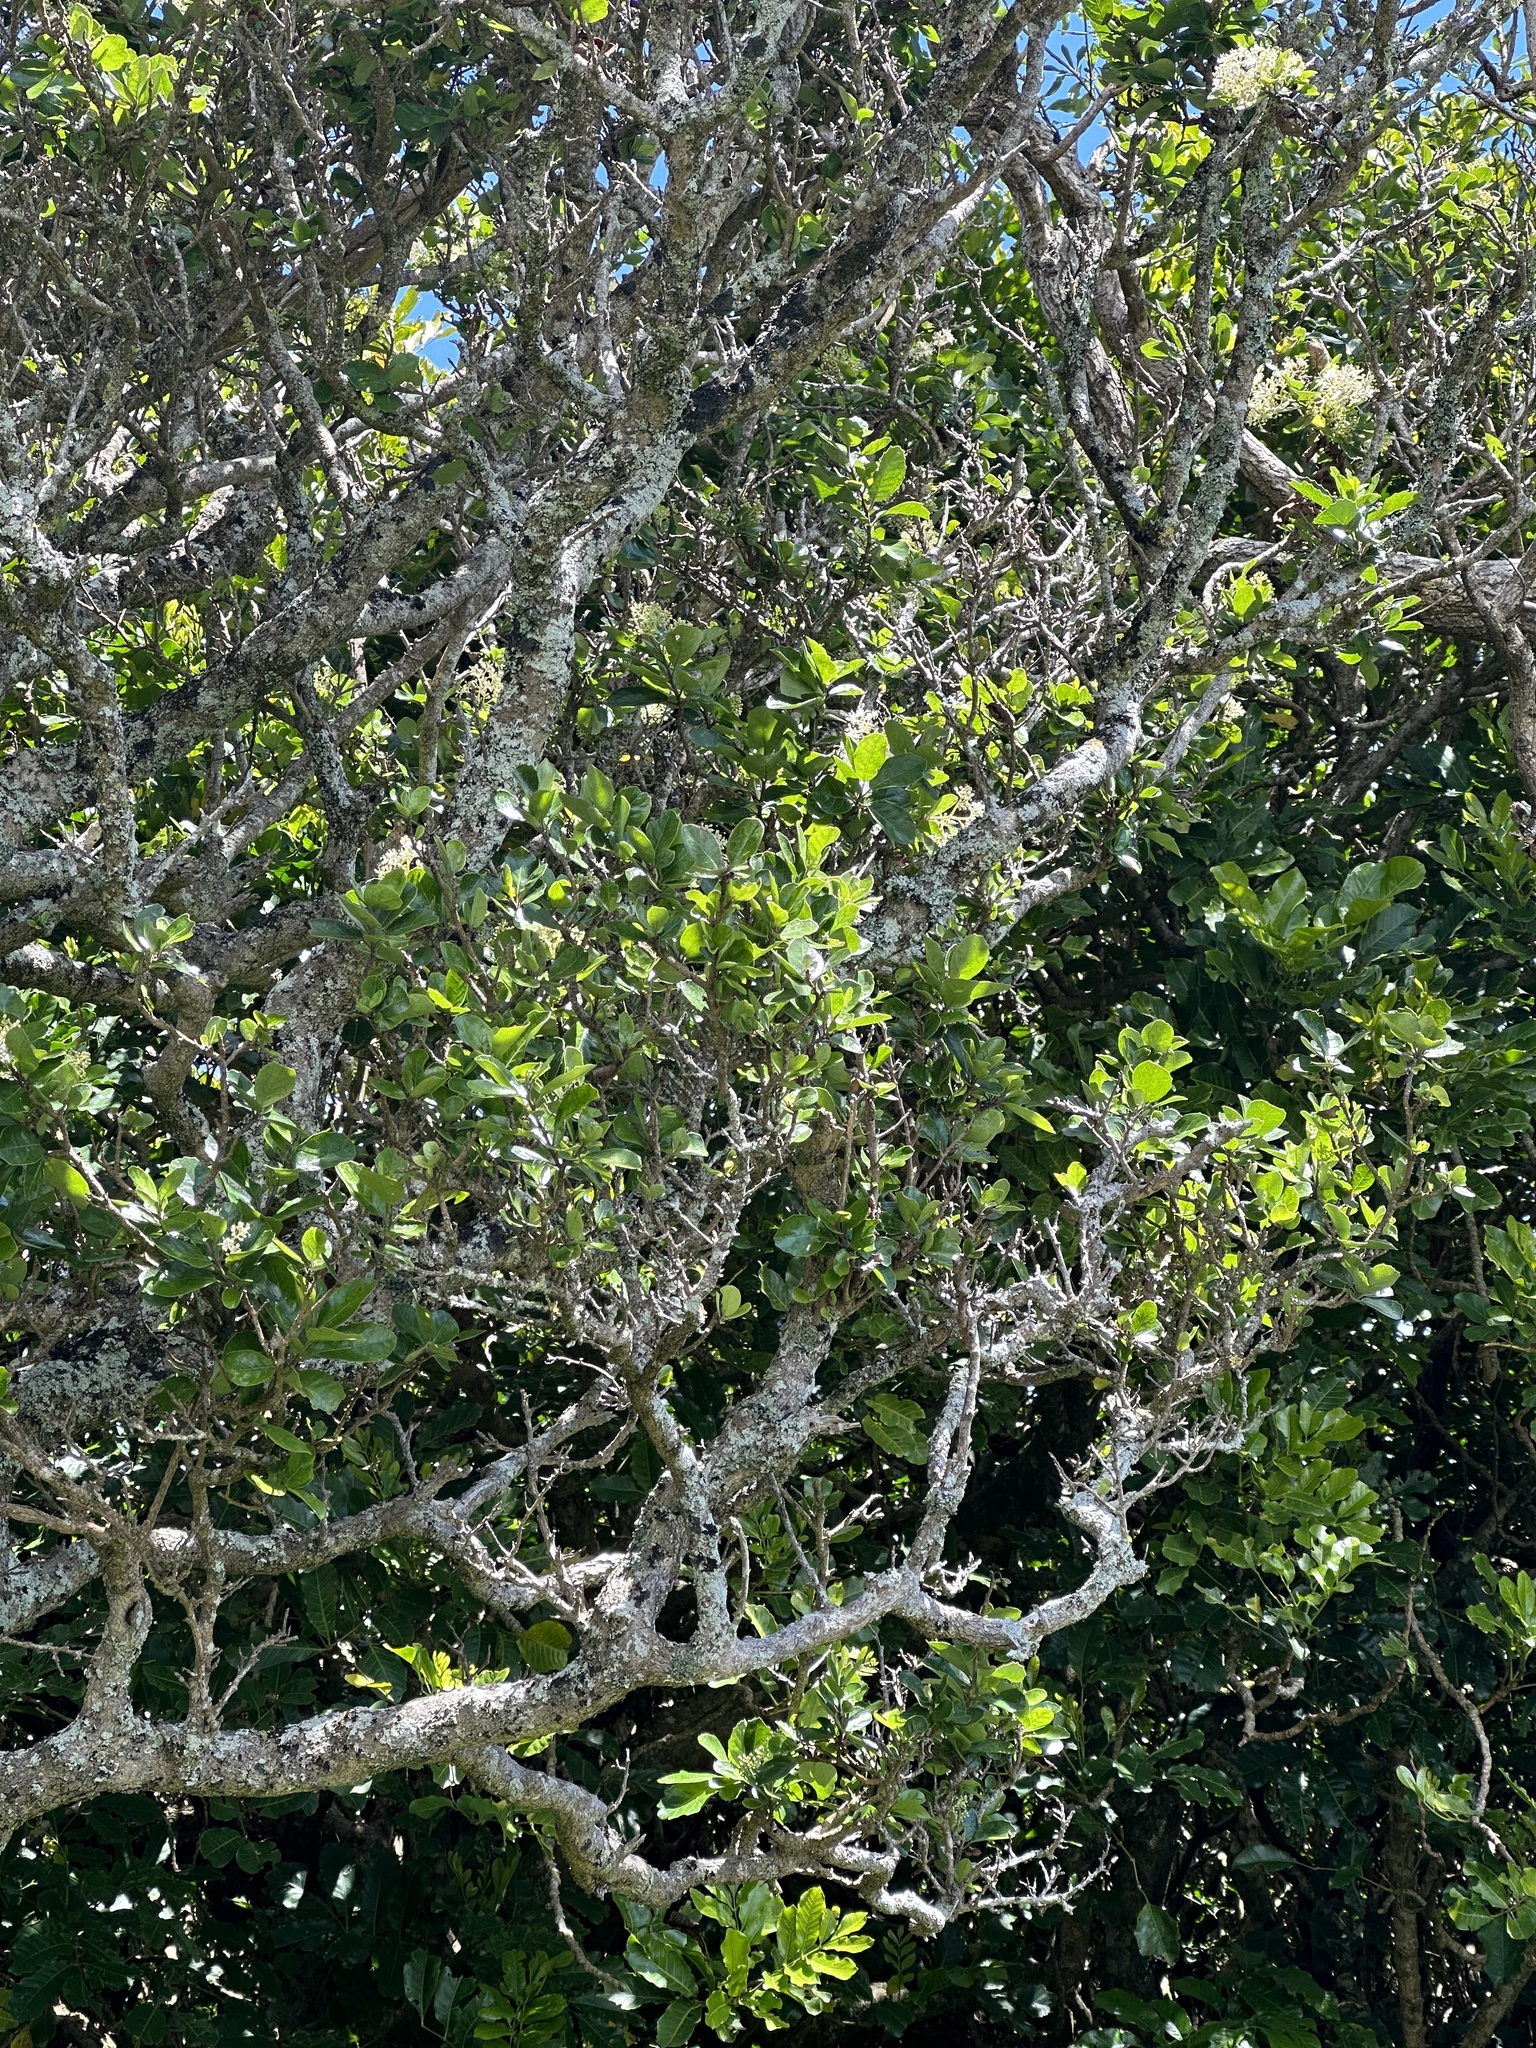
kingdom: Plantae
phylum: Tracheophyta
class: Magnoliopsida
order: Apiales
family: Pennantiaceae
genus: Pennantia
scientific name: Pennantia corymbosa
